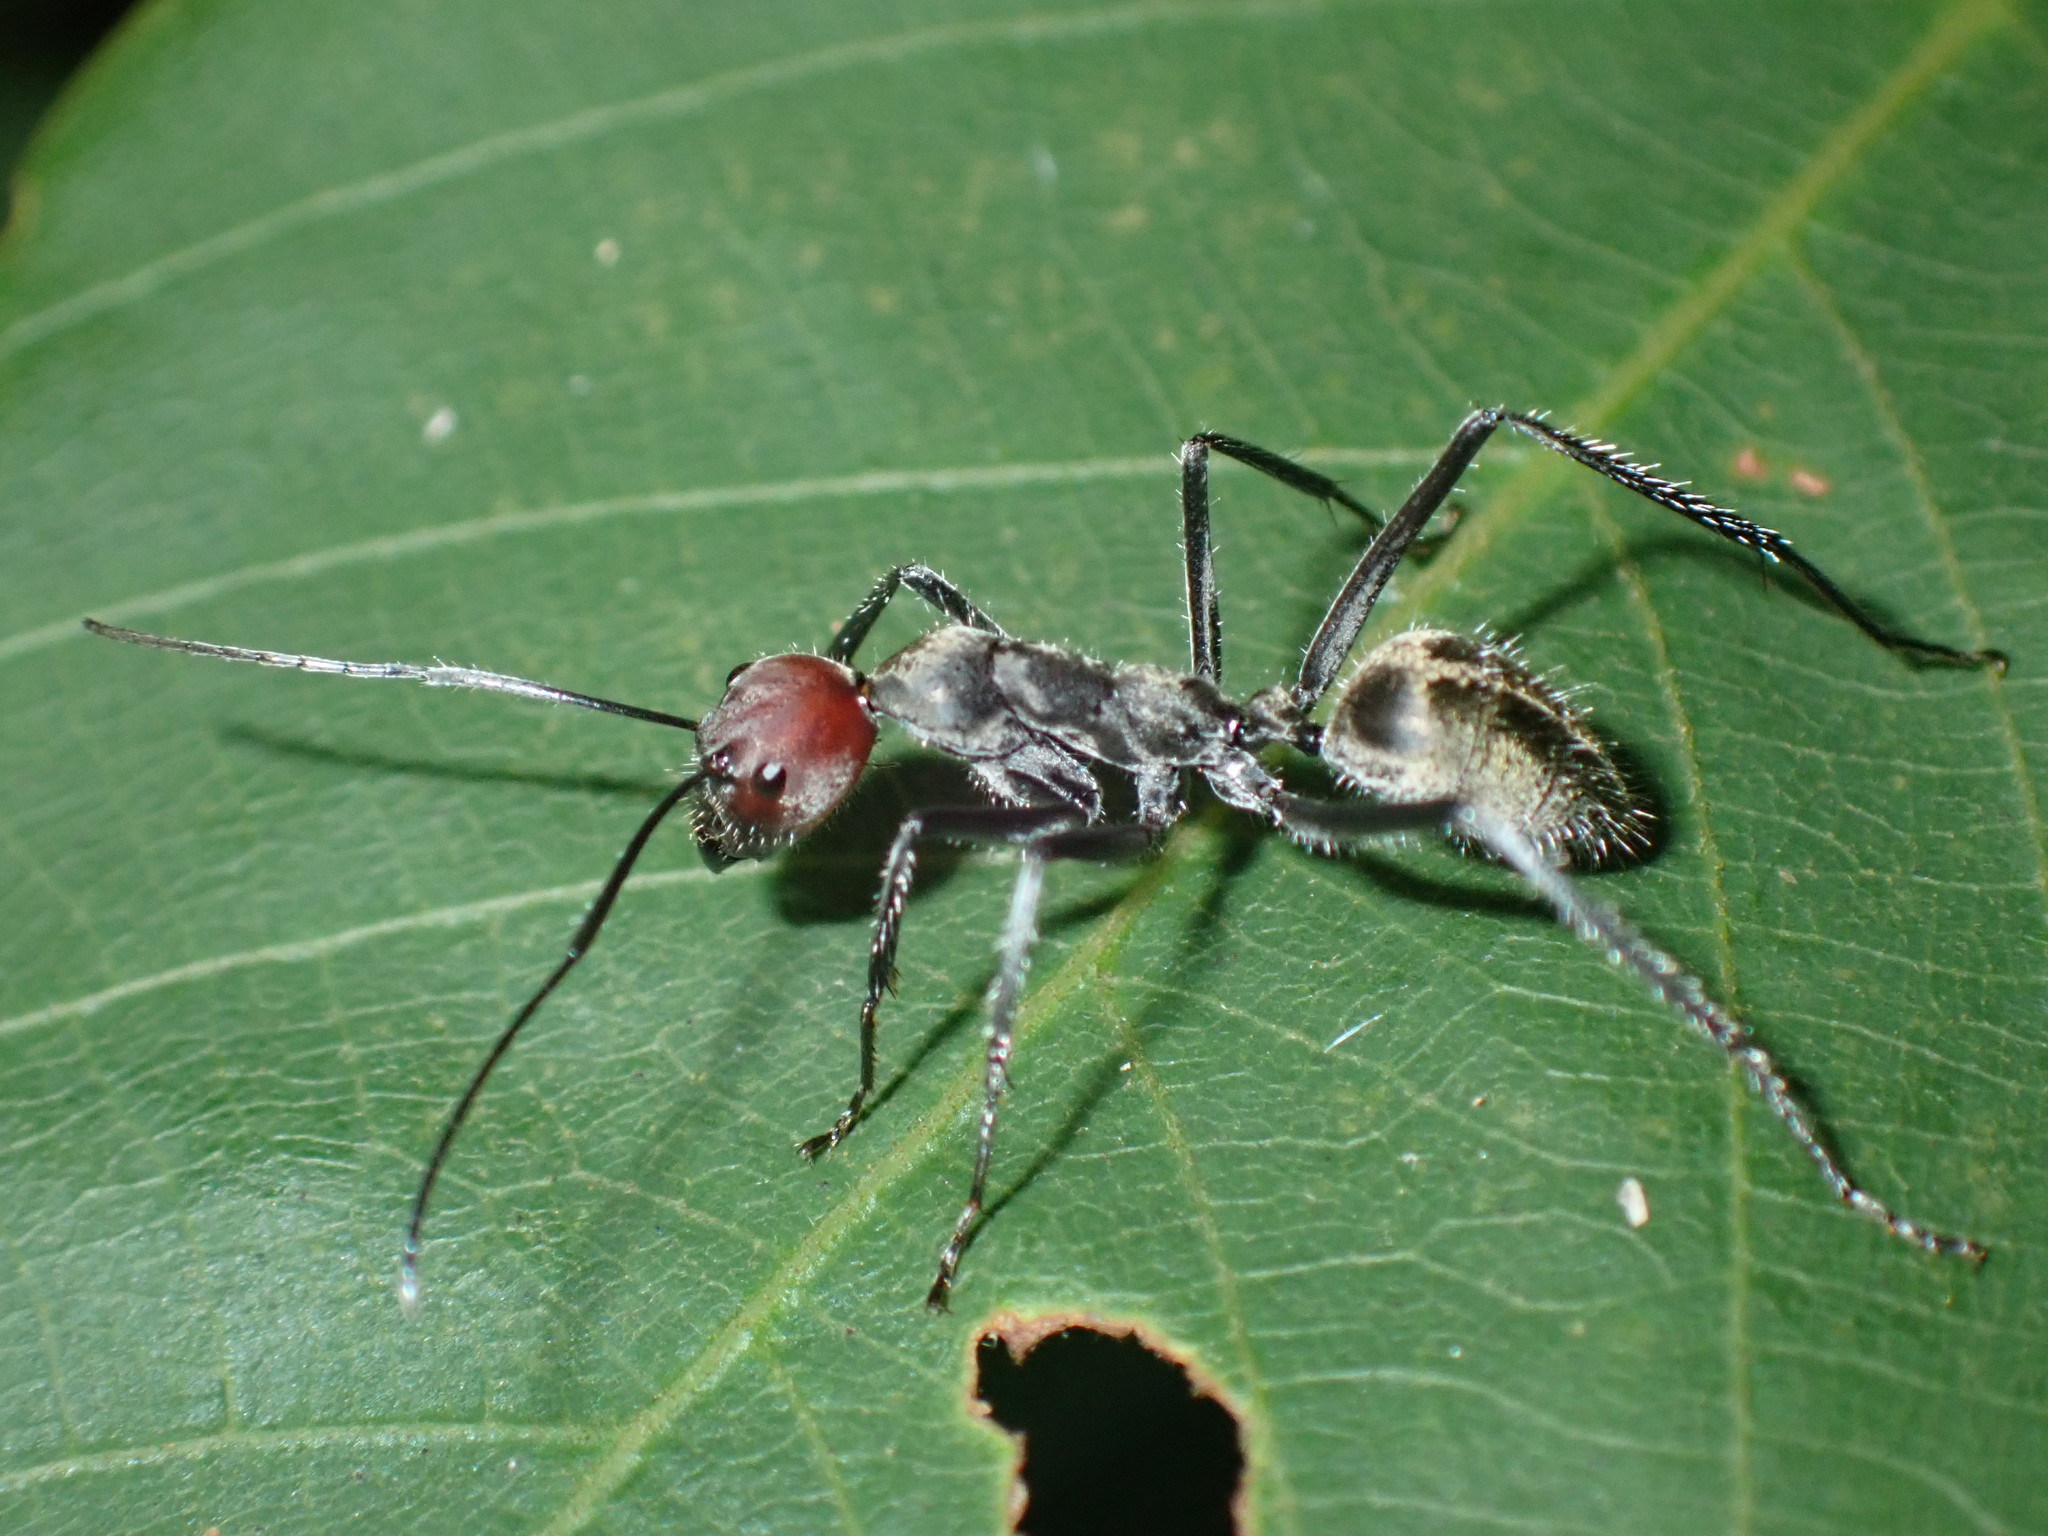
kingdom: Animalia
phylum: Arthropoda
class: Insecta
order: Hymenoptera
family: Formicidae
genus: Camponotus
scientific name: Camponotus singularis
